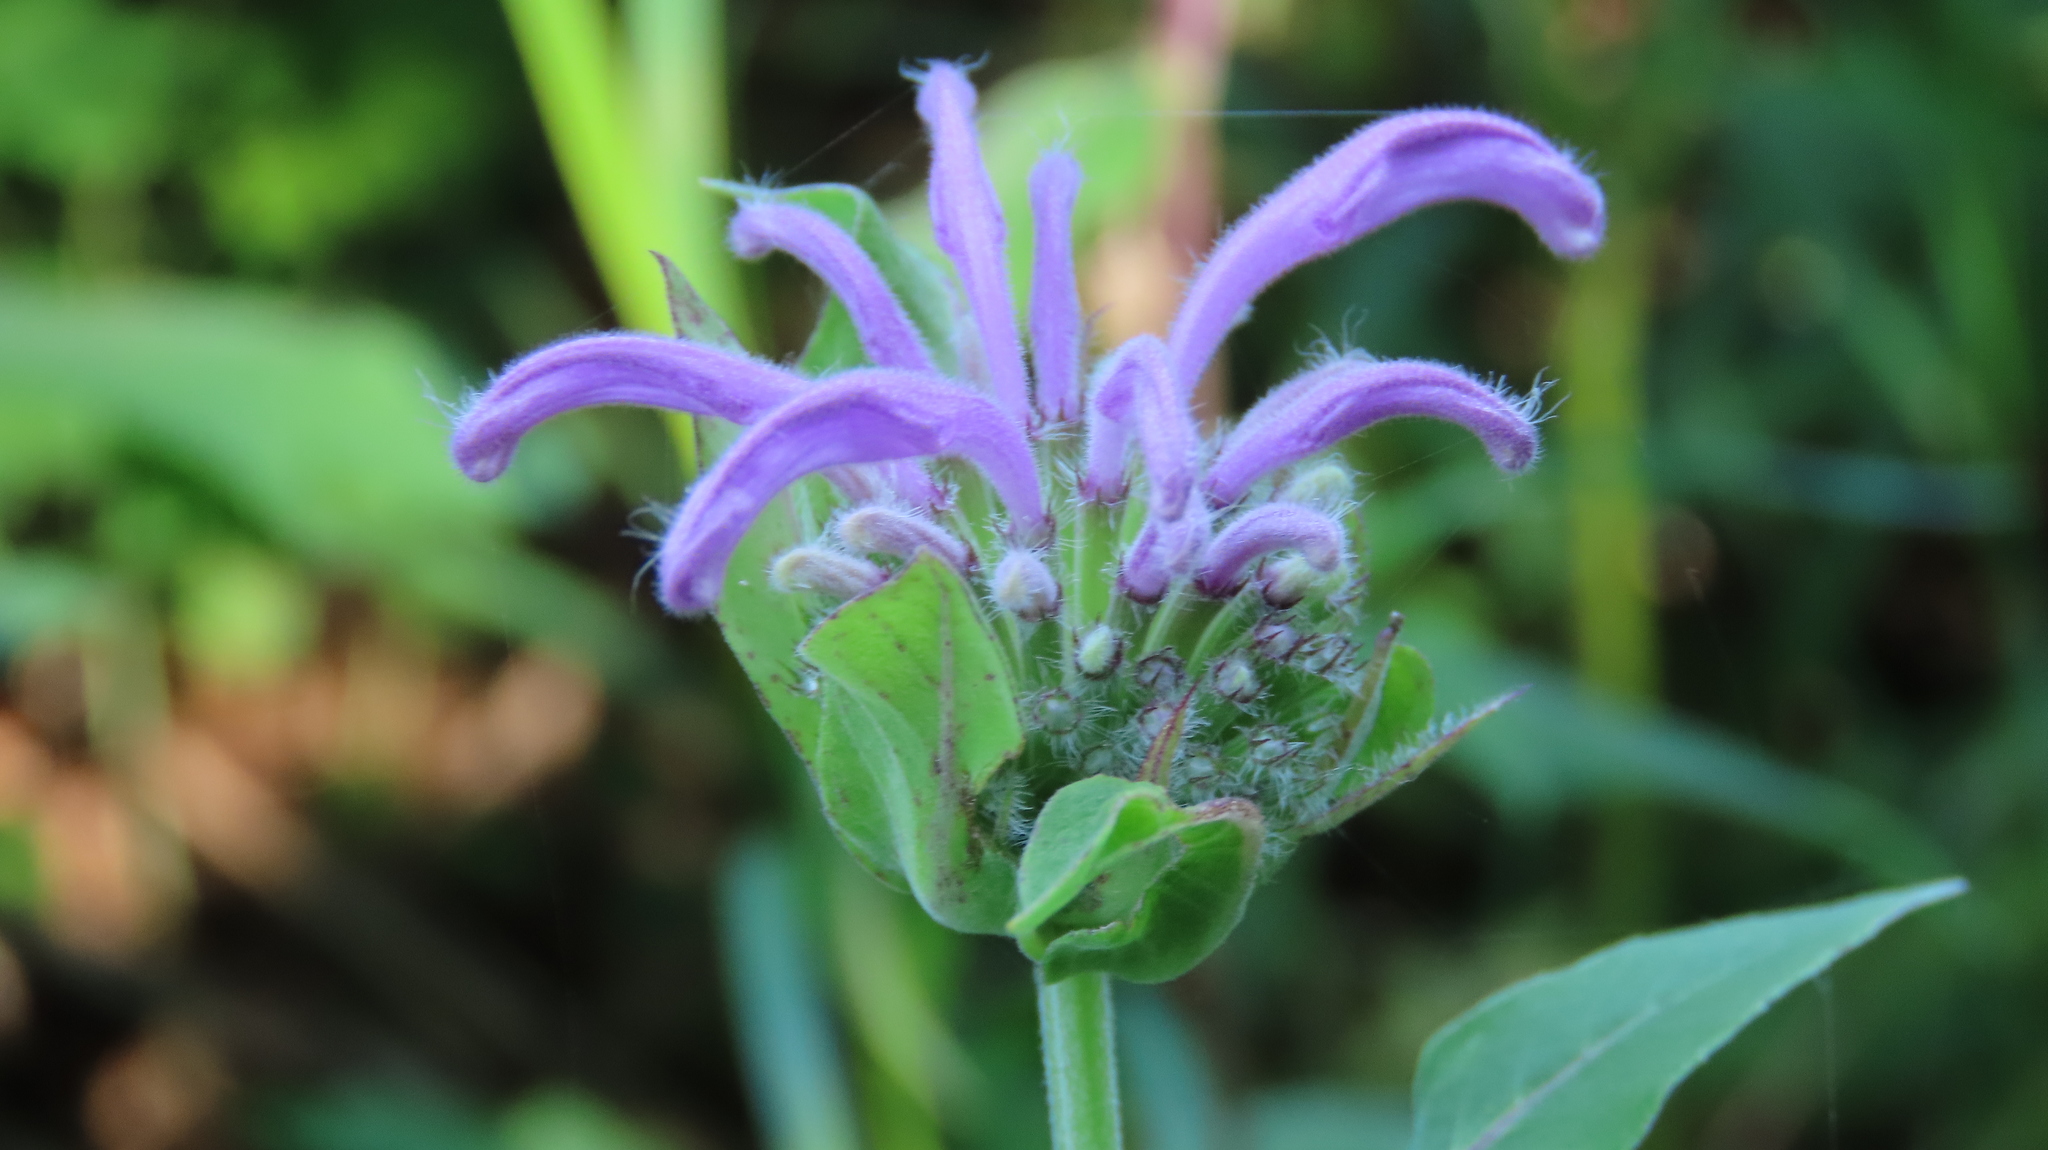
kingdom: Plantae
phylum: Tracheophyta
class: Magnoliopsida
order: Lamiales
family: Lamiaceae
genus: Monarda
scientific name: Monarda fistulosa
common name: Purple beebalm
